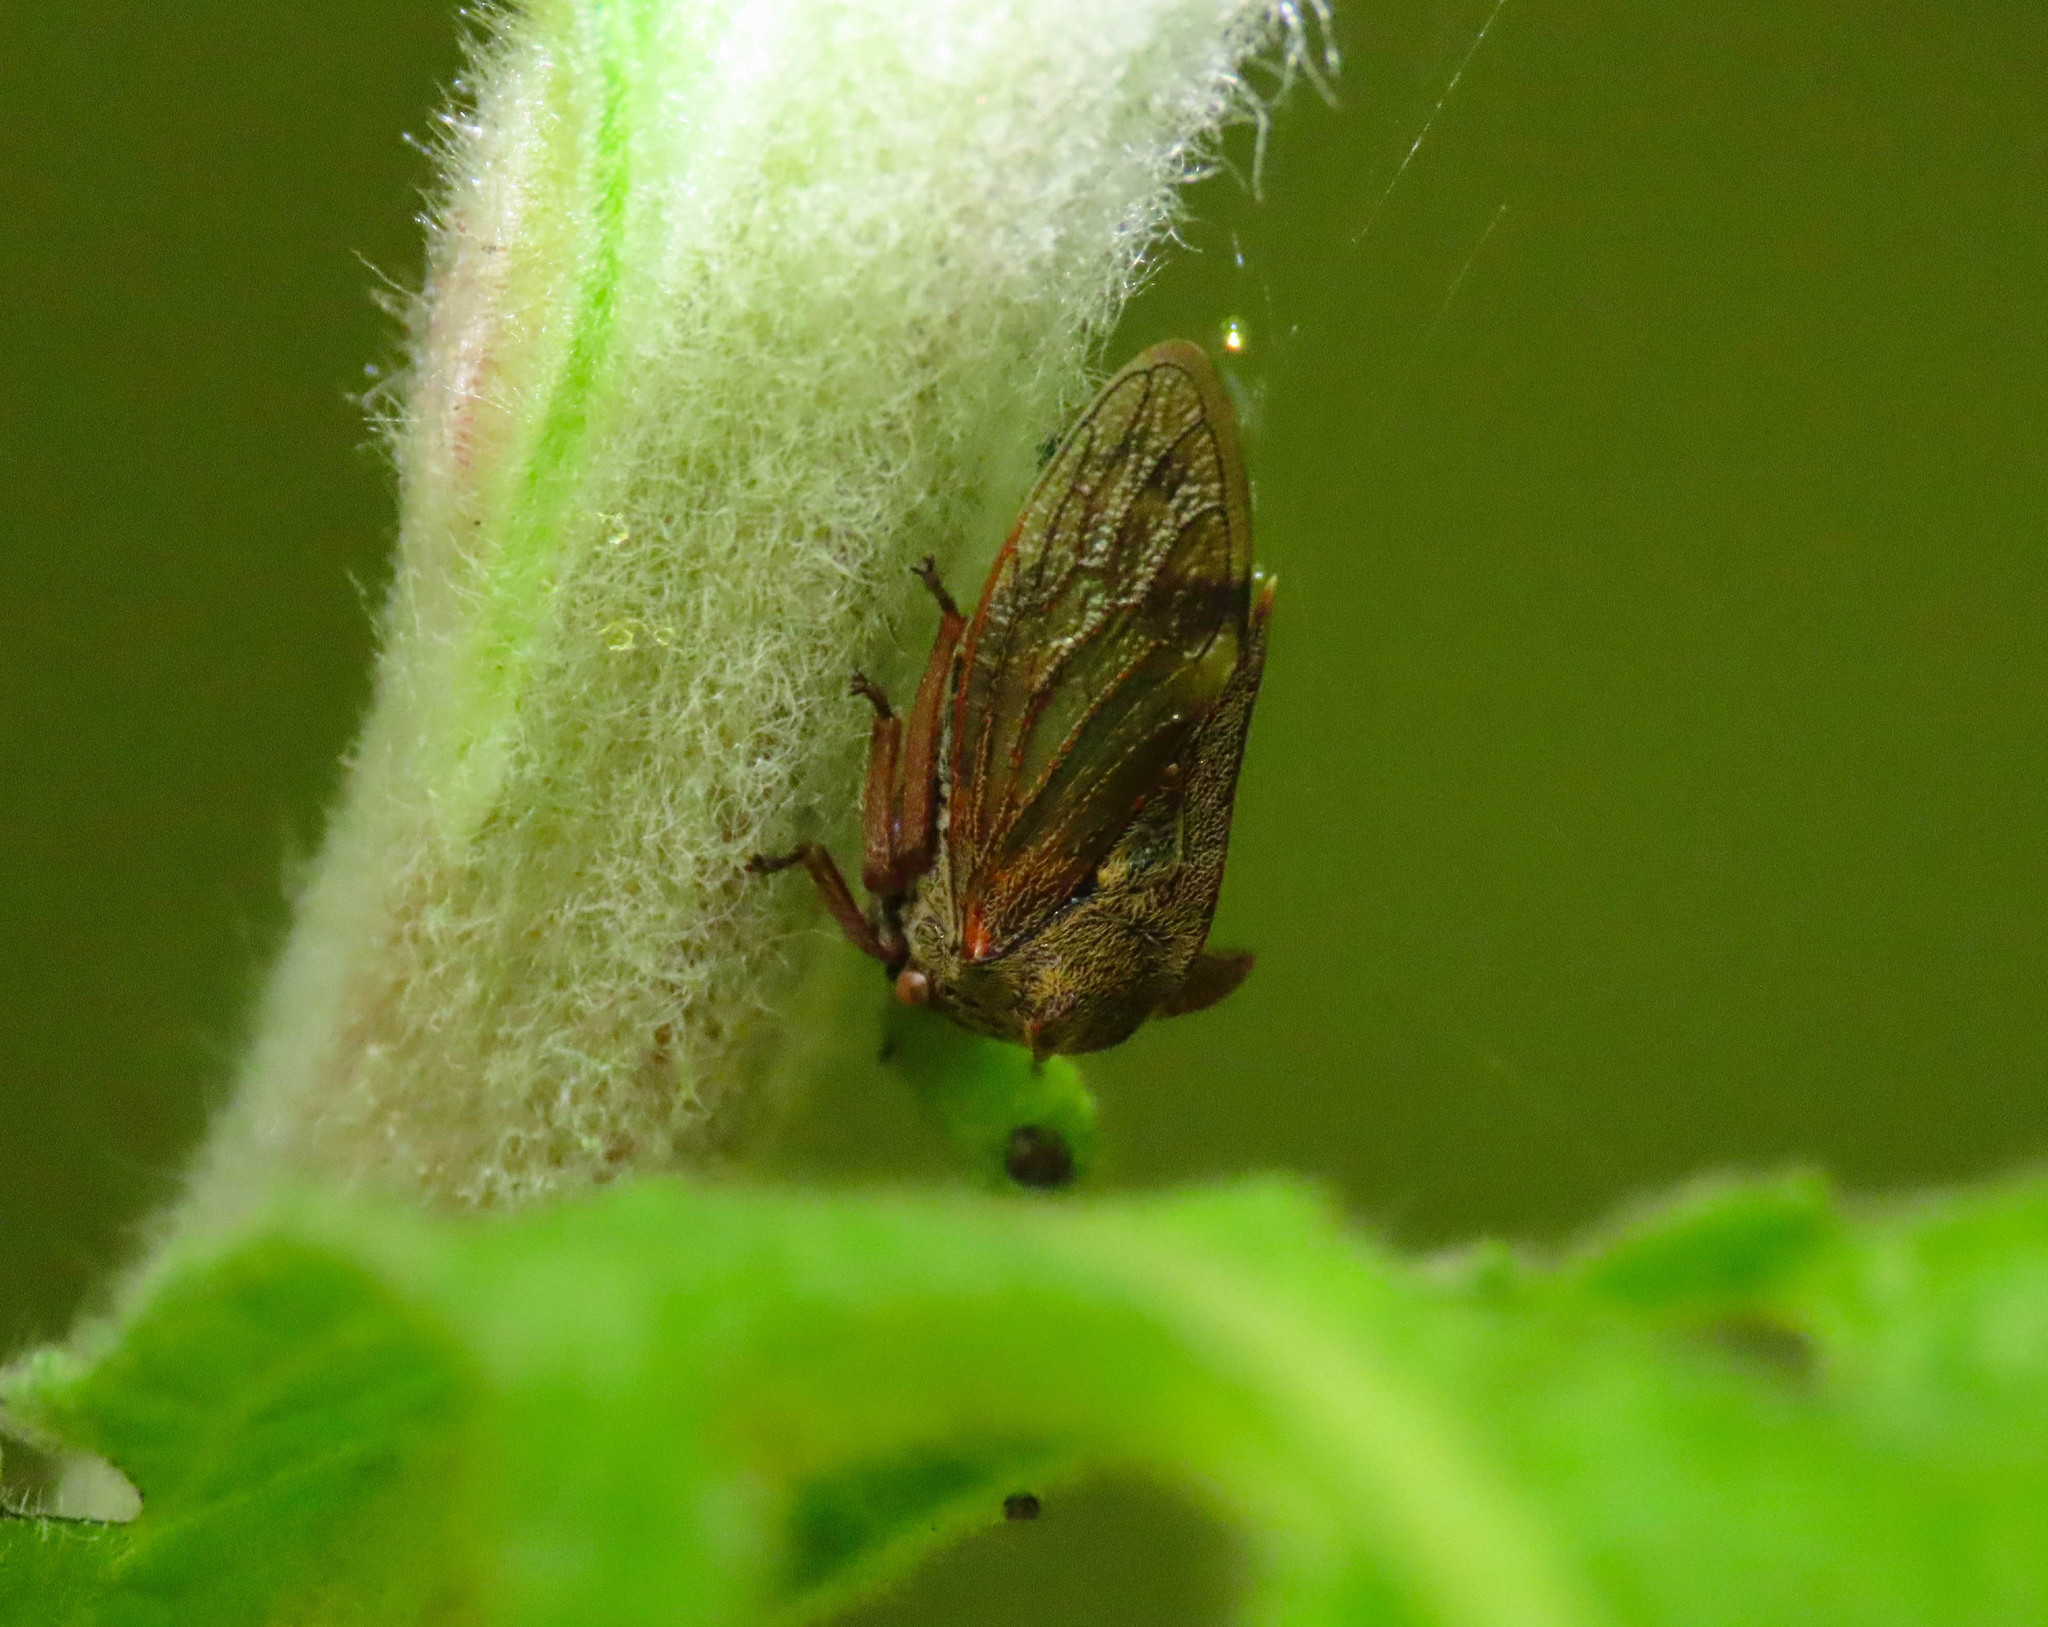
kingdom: Animalia
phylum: Arthropoda
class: Insecta
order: Hemiptera
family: Membracidae
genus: Centrotus
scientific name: Centrotus cornuta
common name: Treehopper
